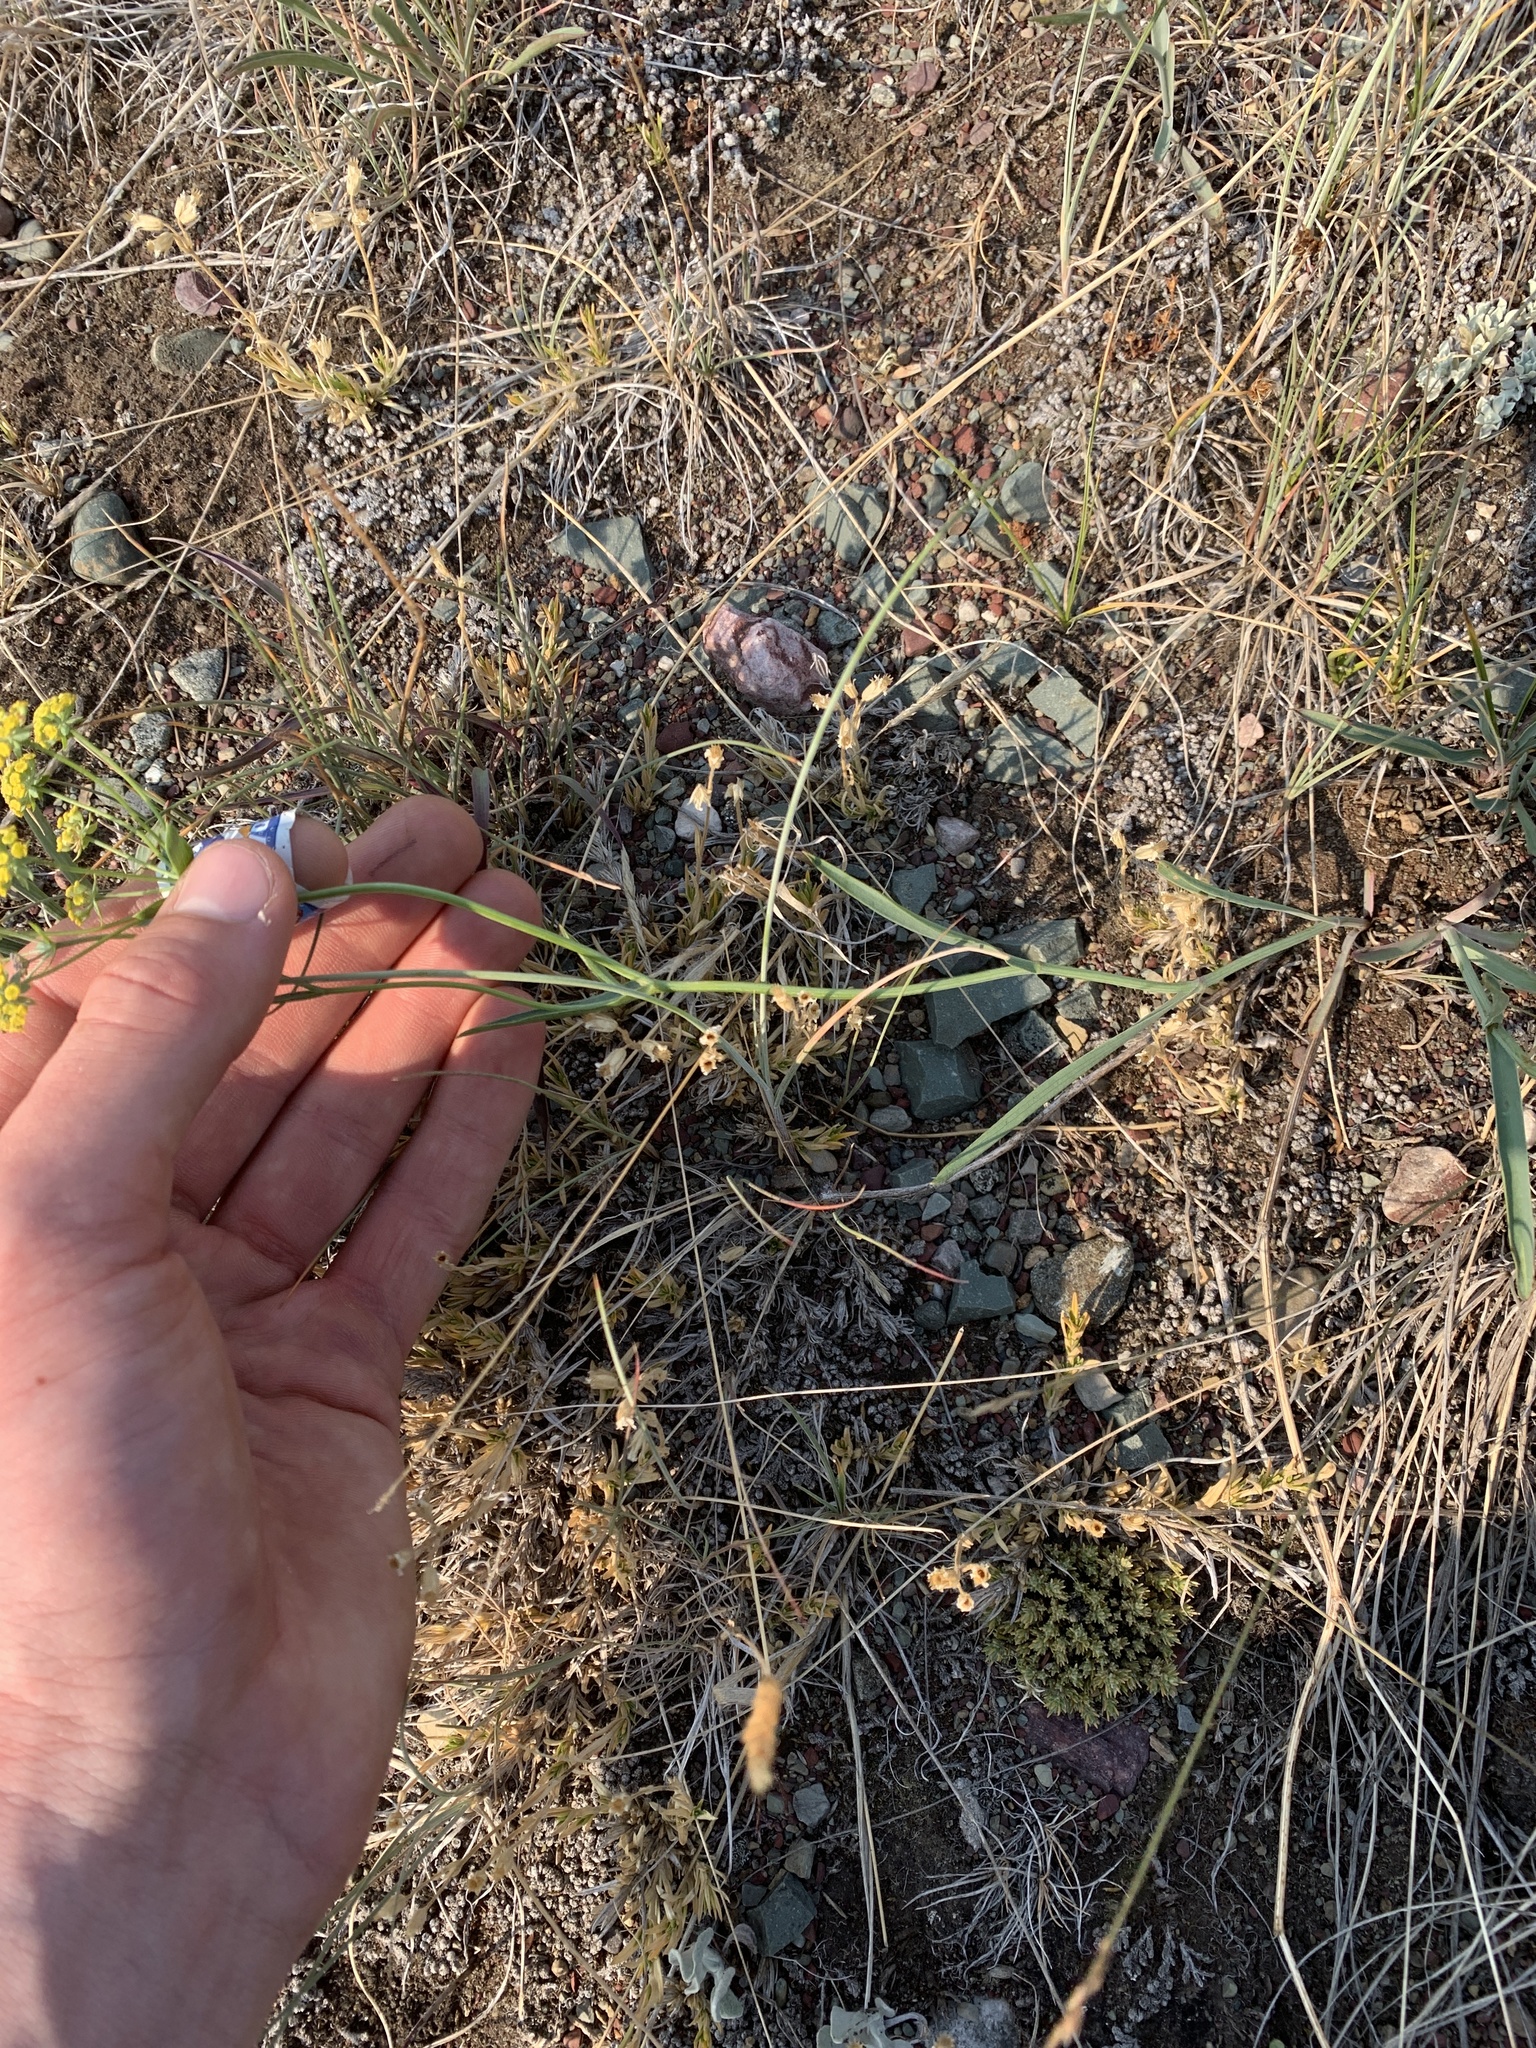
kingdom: Plantae
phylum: Tracheophyta
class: Magnoliopsida
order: Apiales
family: Apiaceae
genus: Bupleurum
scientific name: Bupleurum americanum
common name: American thoroughwax
